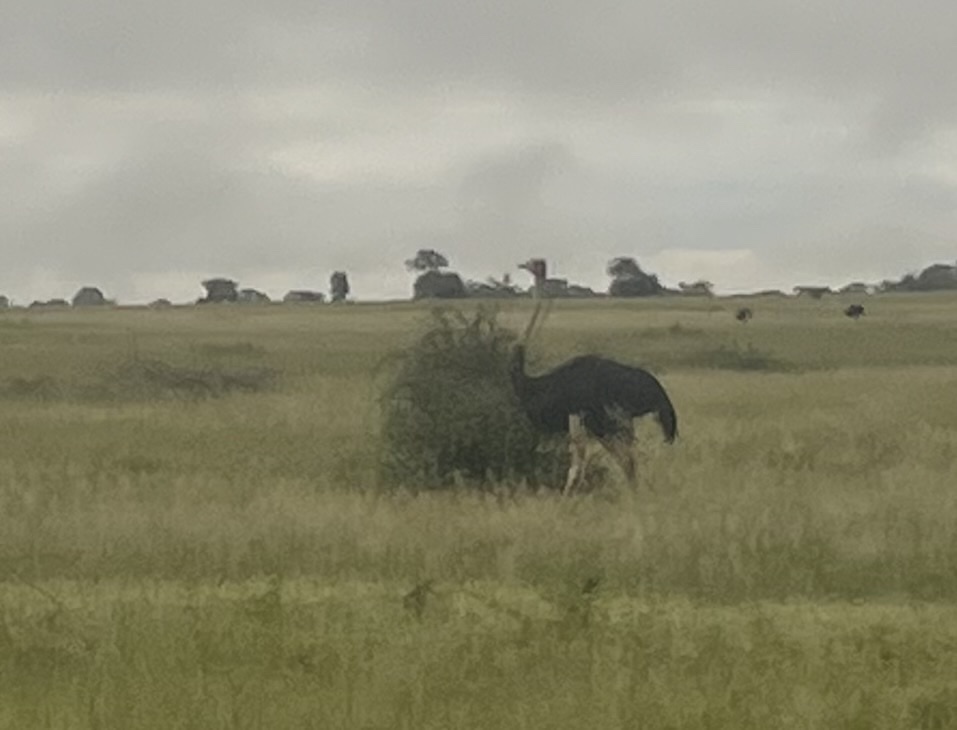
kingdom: Animalia
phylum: Chordata
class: Aves
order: Struthioniformes
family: Struthionidae
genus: Struthio
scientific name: Struthio camelus
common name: Common ostrich
